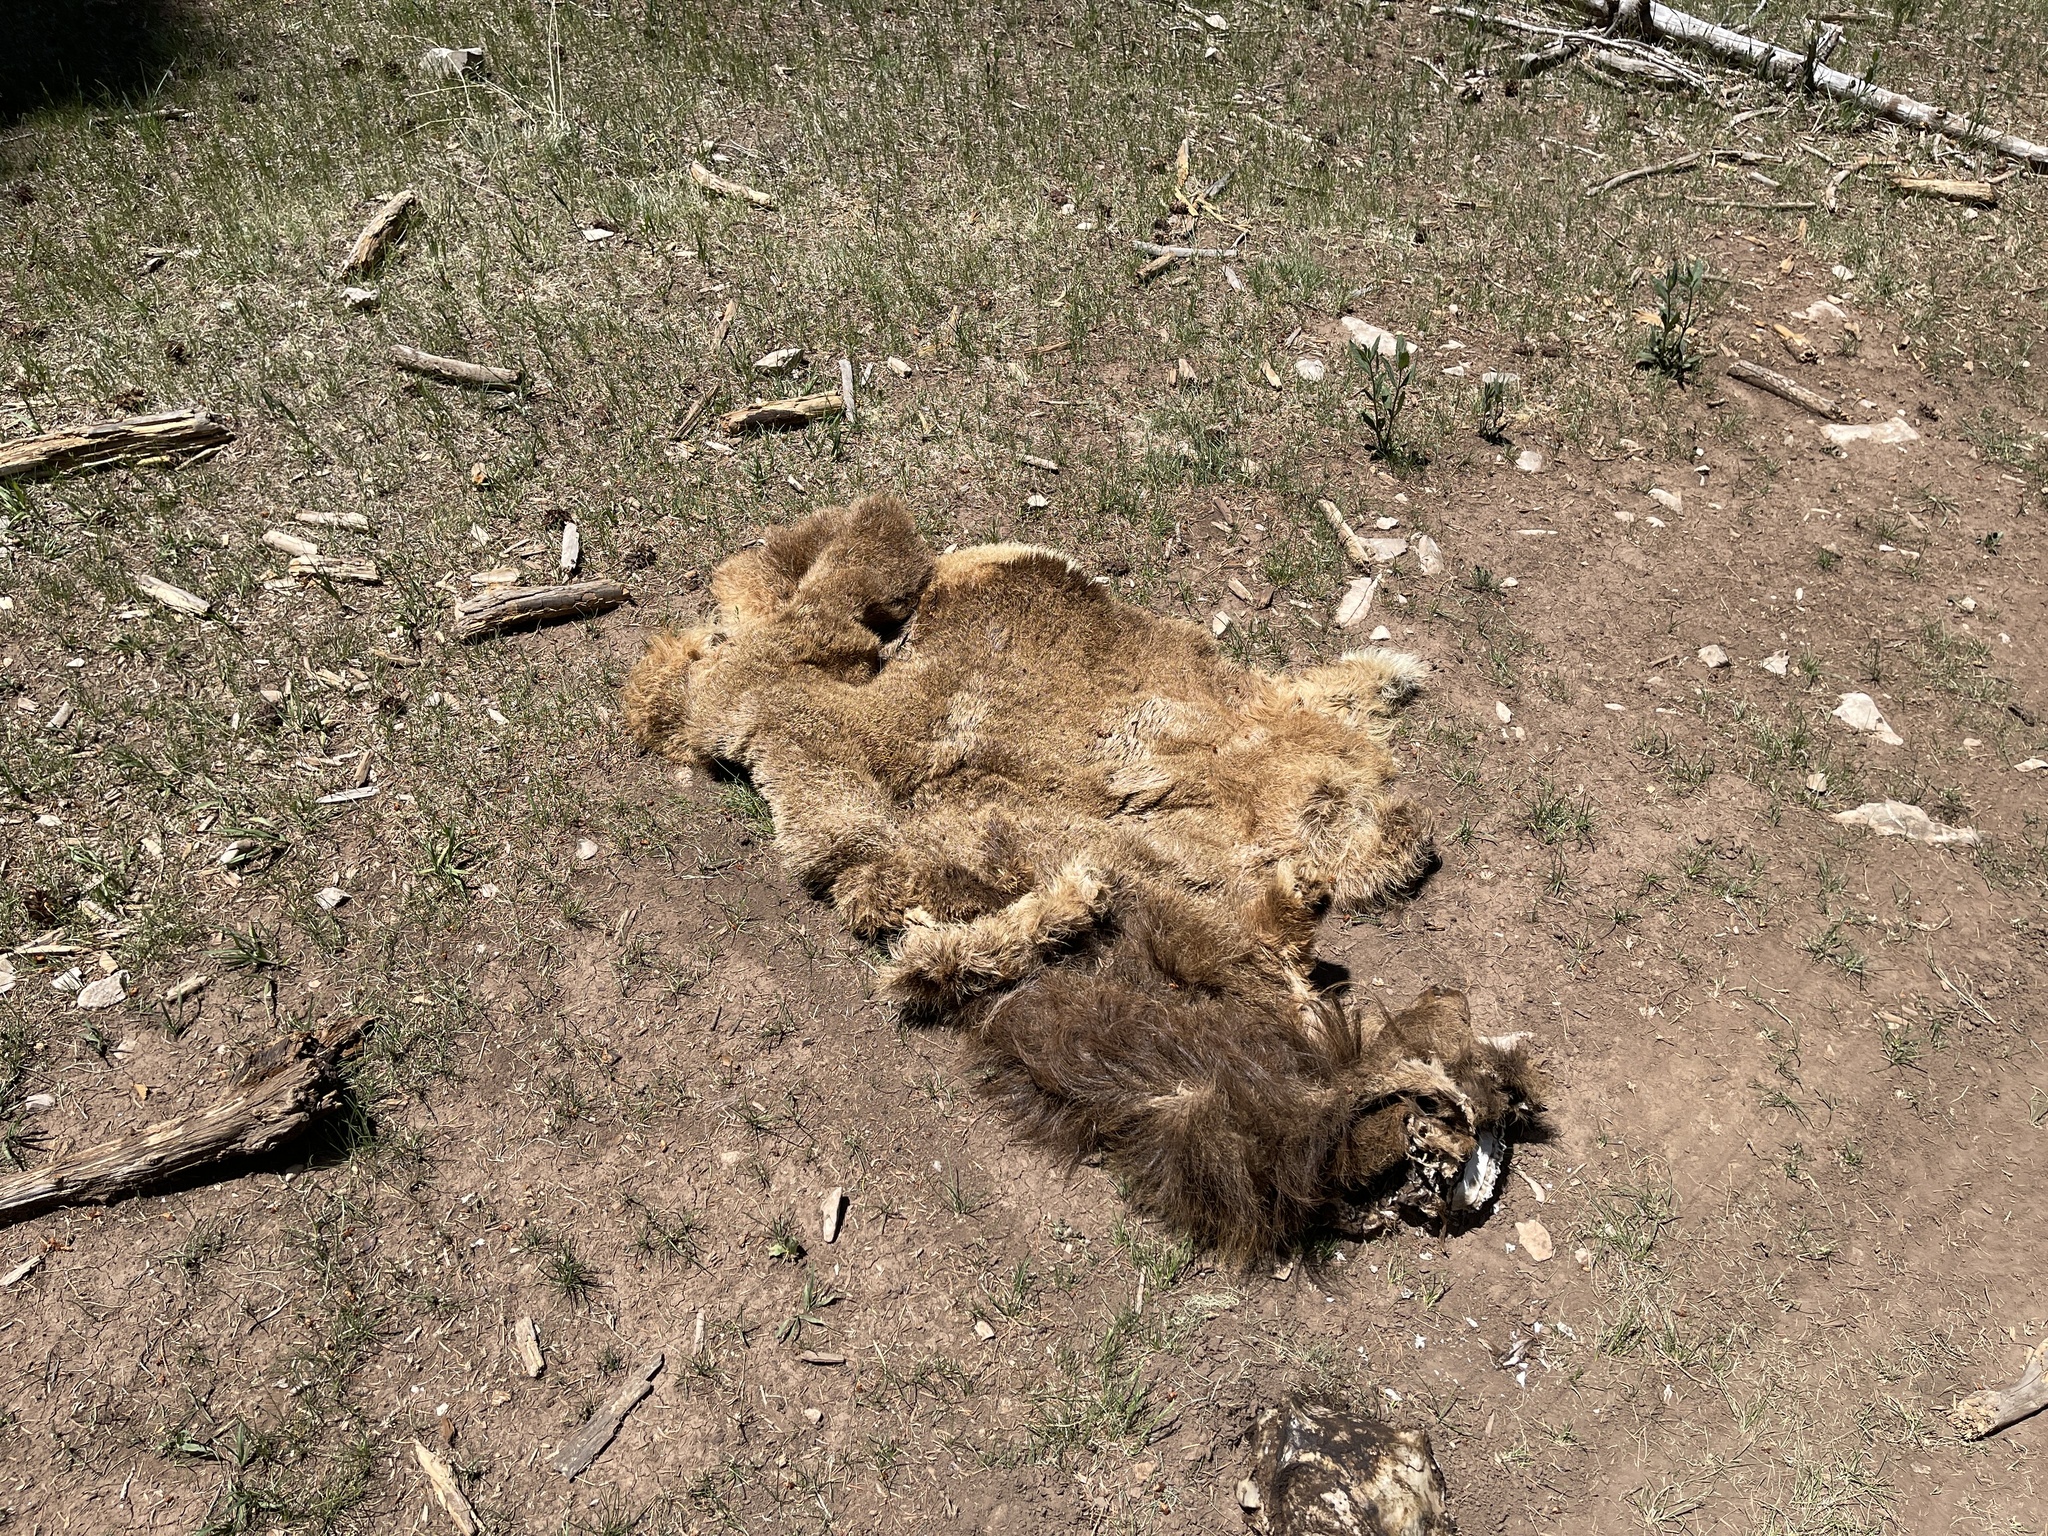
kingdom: Animalia
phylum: Chordata
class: Mammalia
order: Artiodactyla
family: Cervidae
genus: Cervus
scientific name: Cervus elaphus
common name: Red deer
